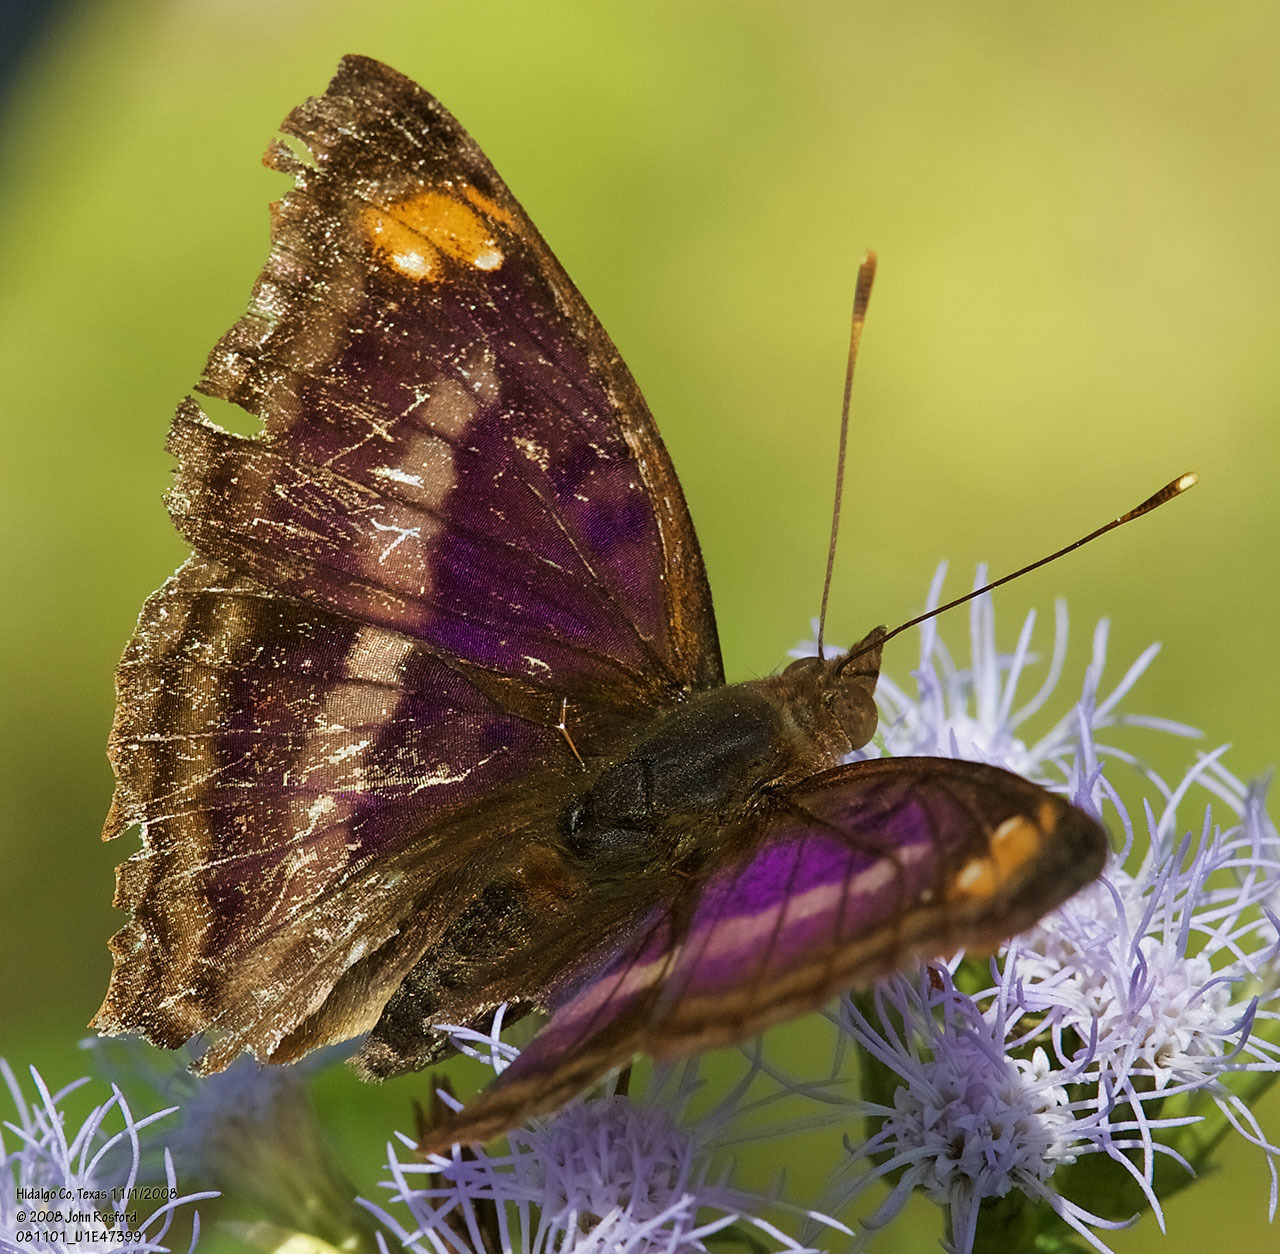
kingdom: Animalia
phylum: Arthropoda
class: Insecta
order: Lepidoptera
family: Nymphalidae
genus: Doxocopa
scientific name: Doxocopa pavon
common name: Pavon emperor
